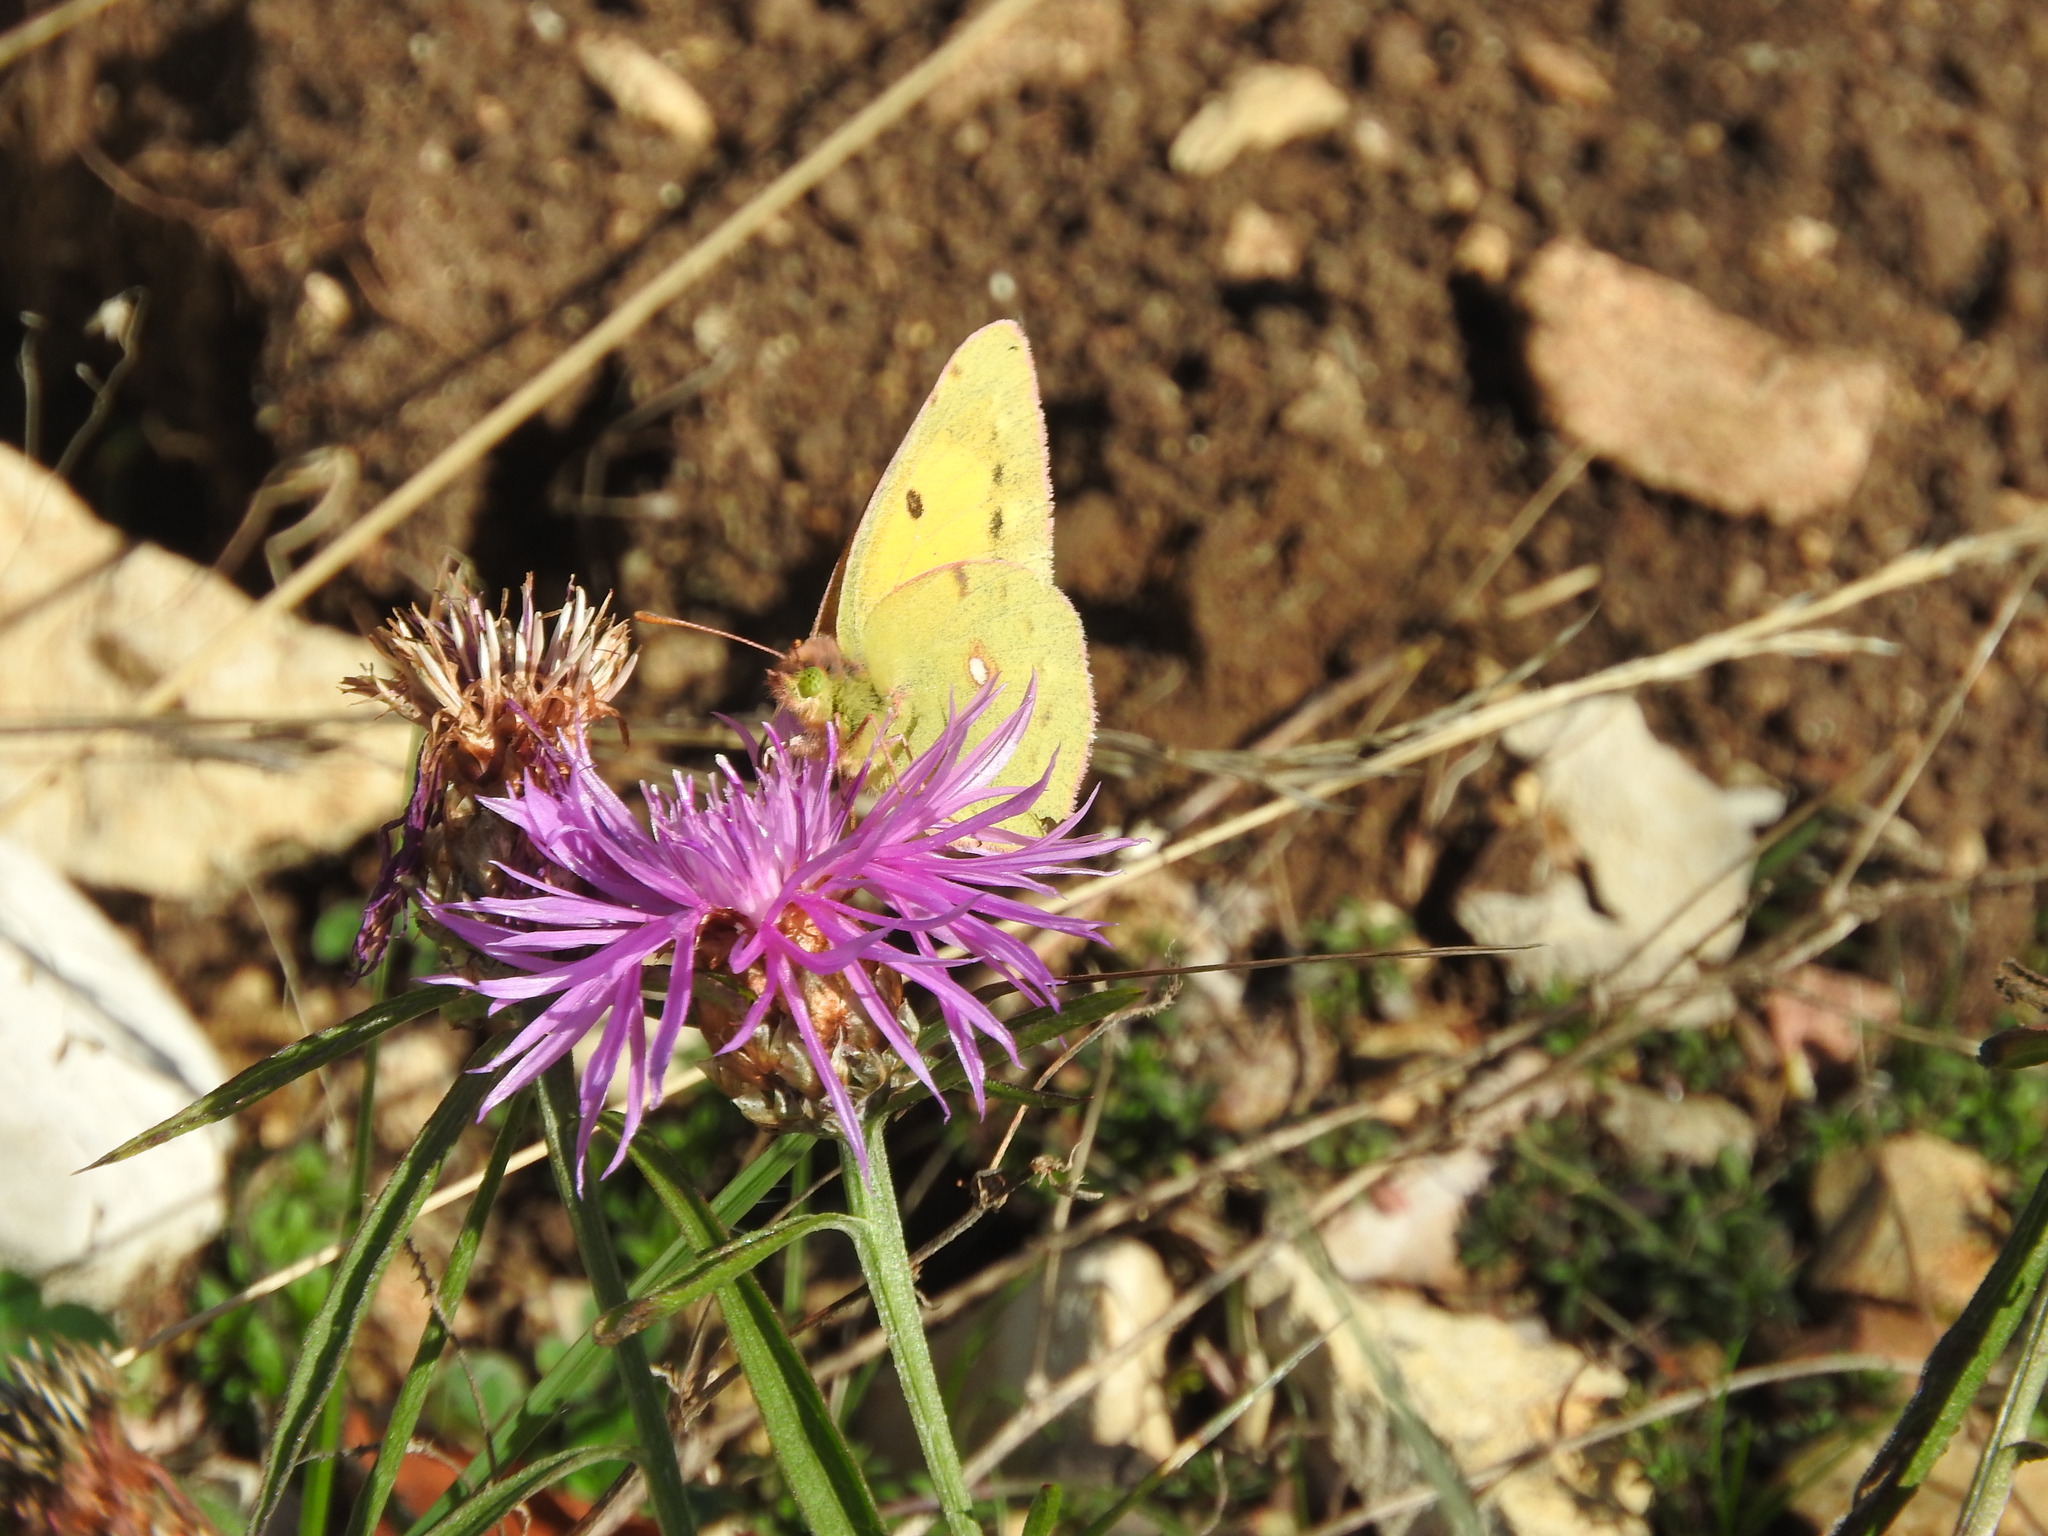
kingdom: Animalia
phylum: Arthropoda
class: Insecta
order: Lepidoptera
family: Pieridae
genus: Colias
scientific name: Colias croceus
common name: Clouded yellow
